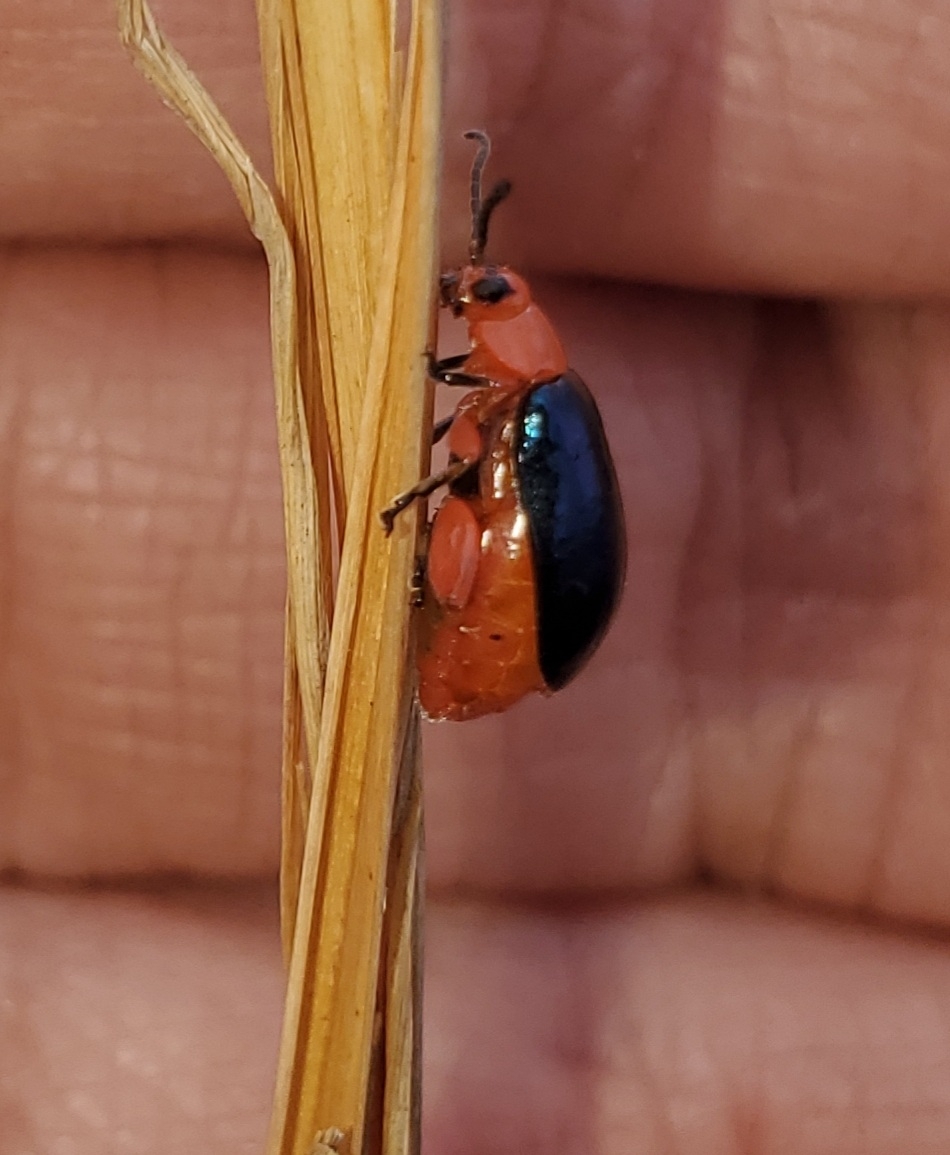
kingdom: Animalia
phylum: Arthropoda
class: Insecta
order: Coleoptera
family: Chrysomelidae
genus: Asphaera
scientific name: Asphaera lustrans
